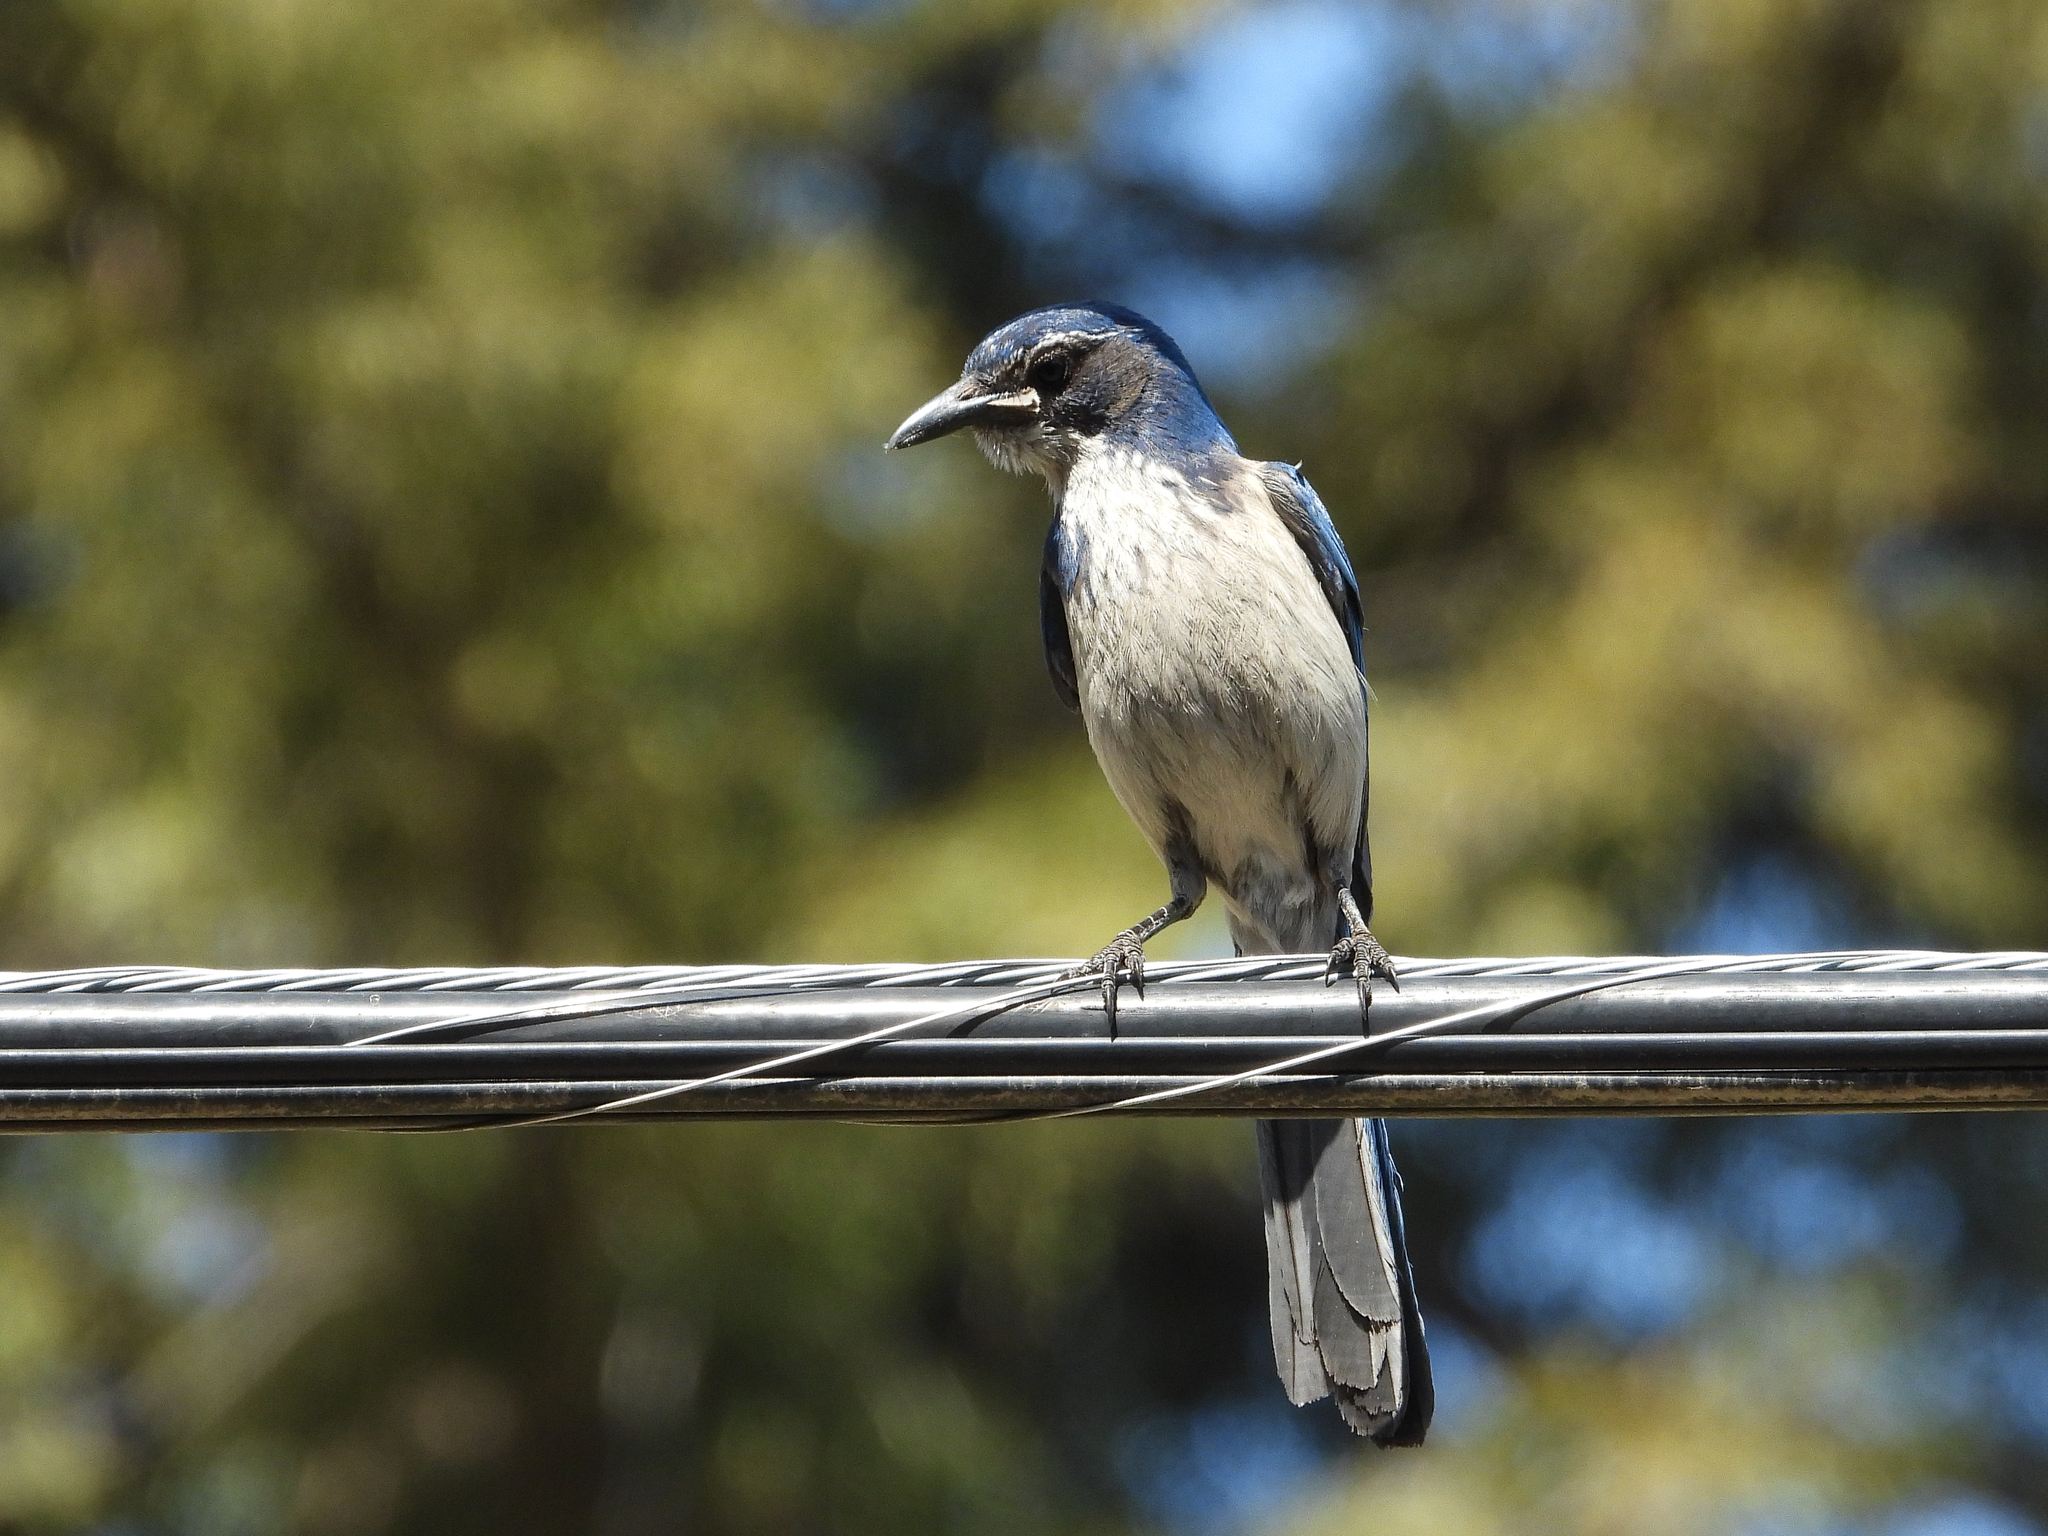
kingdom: Animalia
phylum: Chordata
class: Aves
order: Passeriformes
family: Corvidae
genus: Aphelocoma
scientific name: Aphelocoma californica
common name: California scrub-jay
